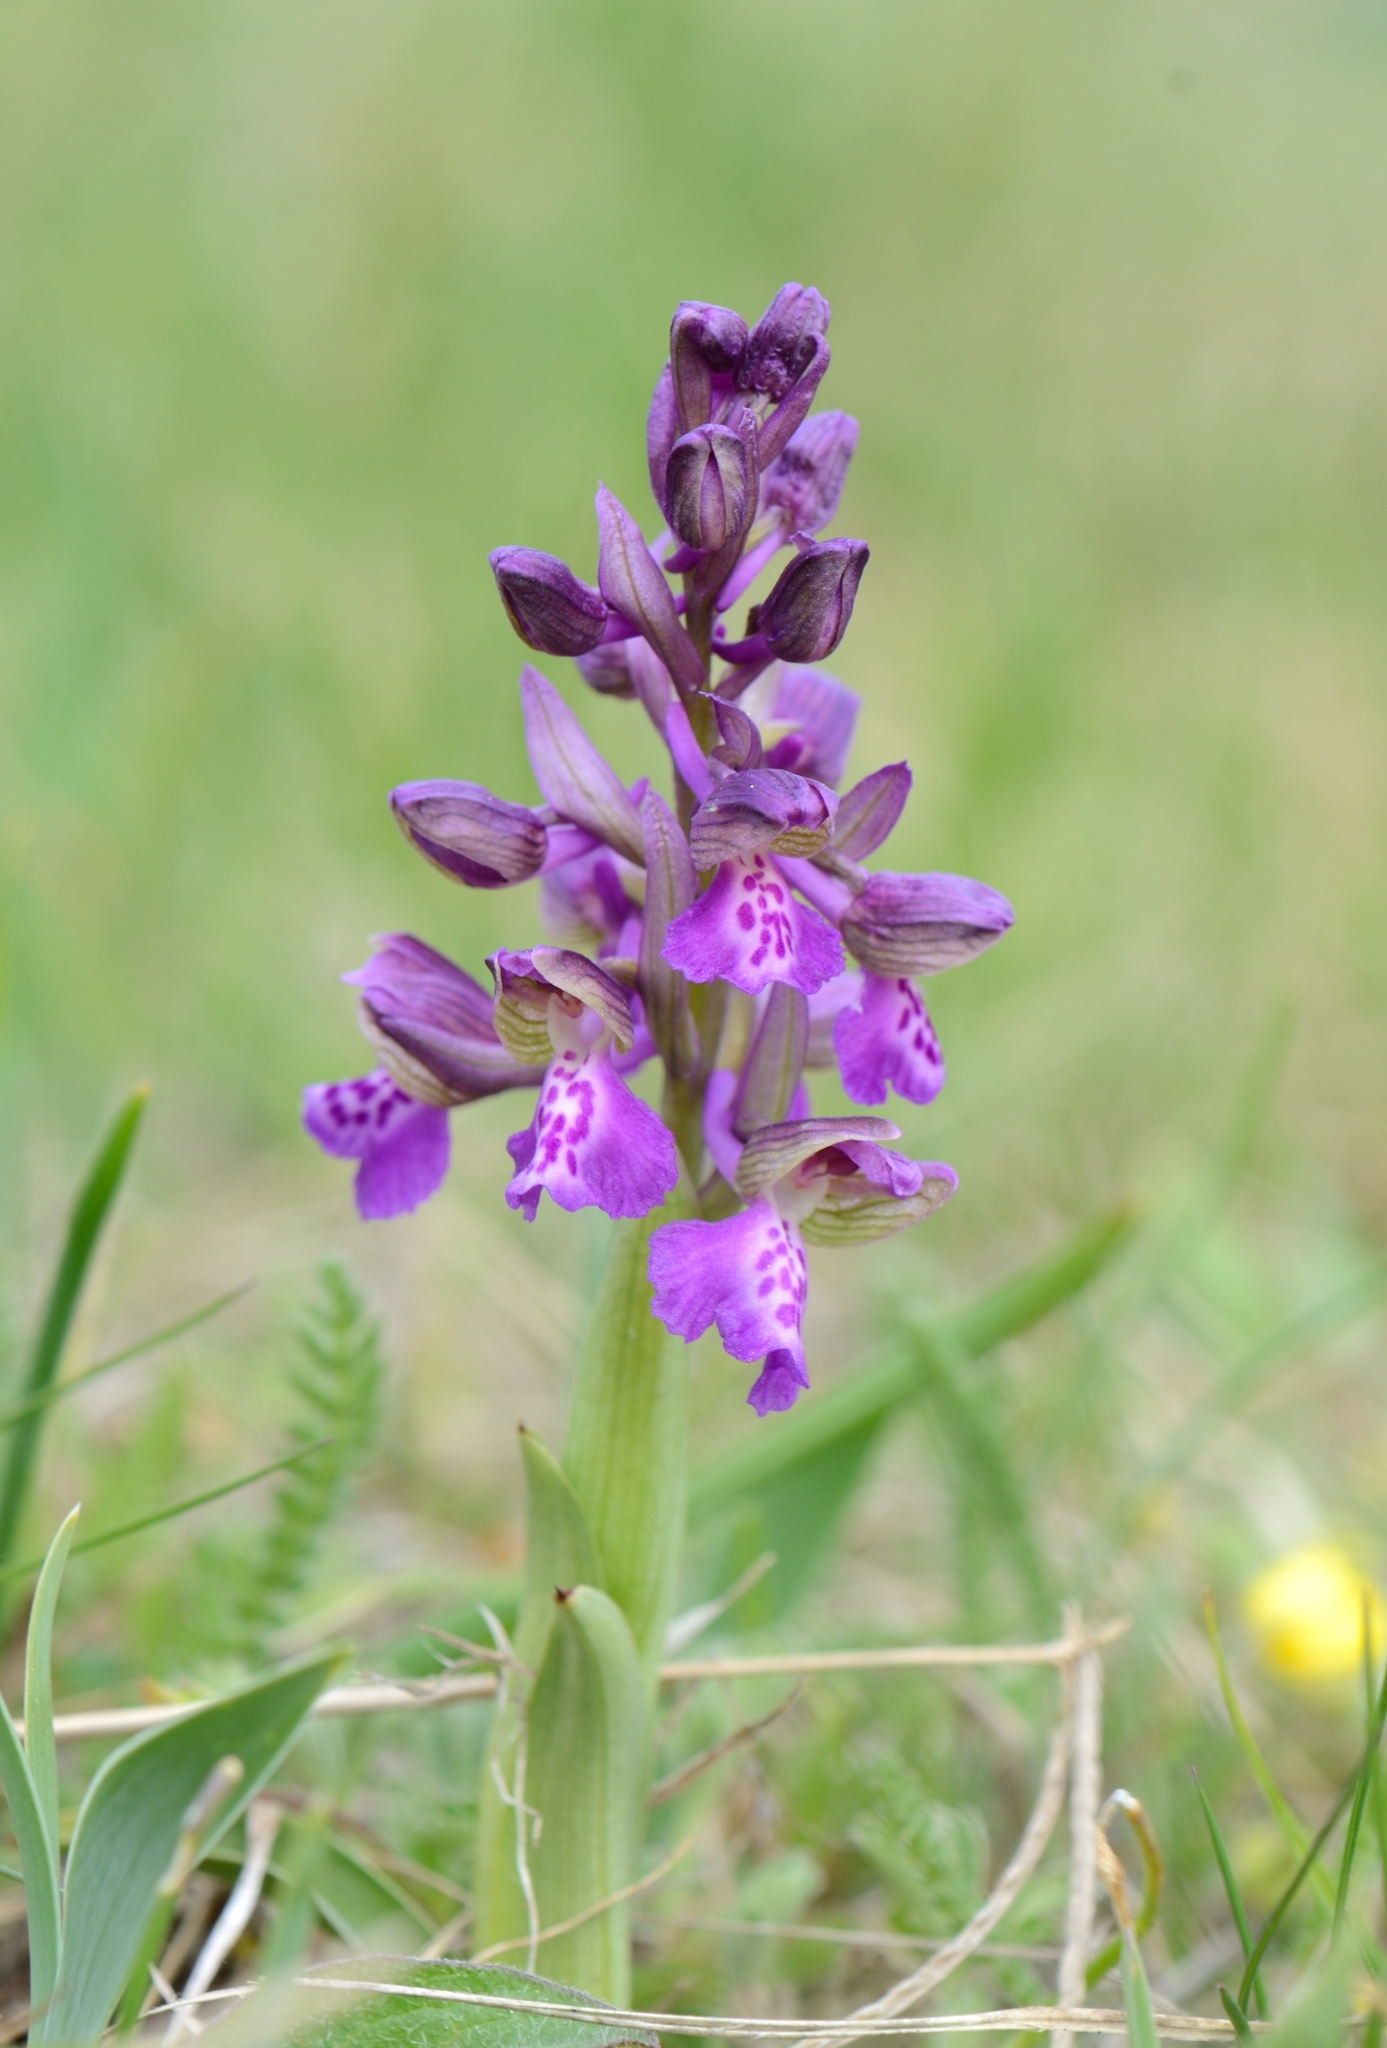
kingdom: Plantae
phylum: Tracheophyta
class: Liliopsida
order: Asparagales
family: Orchidaceae
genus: Anacamptis
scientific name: Anacamptis morio
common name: Green-winged orchid
